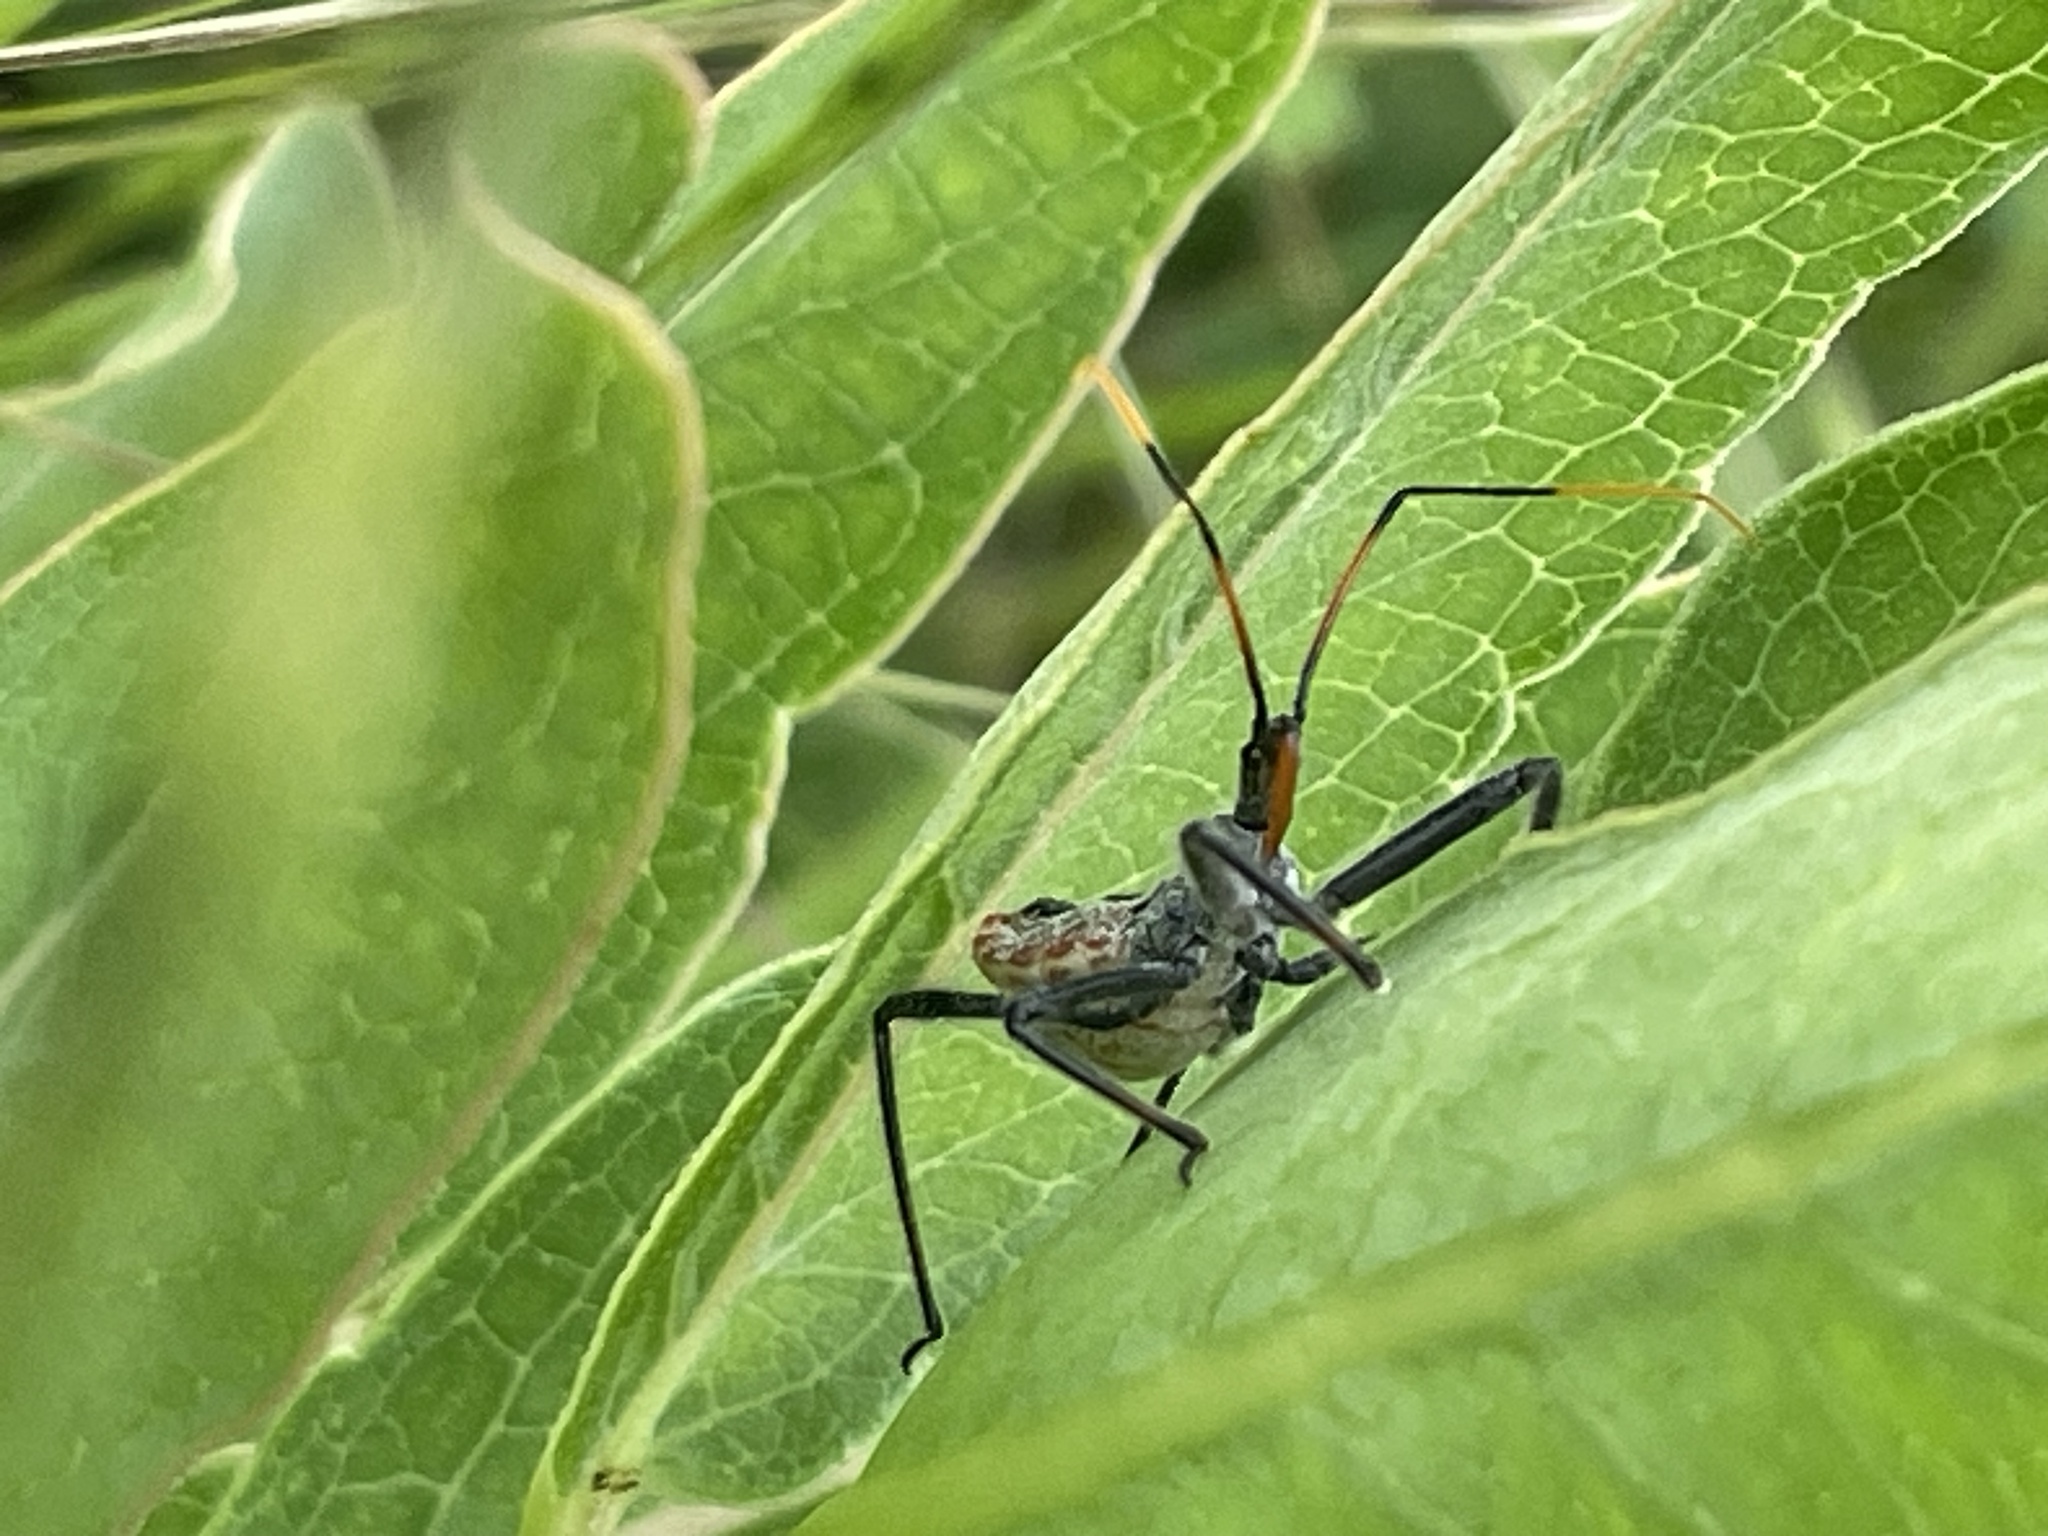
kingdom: Animalia
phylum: Arthropoda
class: Insecta
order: Hemiptera
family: Reduviidae
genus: Arilus
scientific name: Arilus cristatus
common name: North american wheel bug
